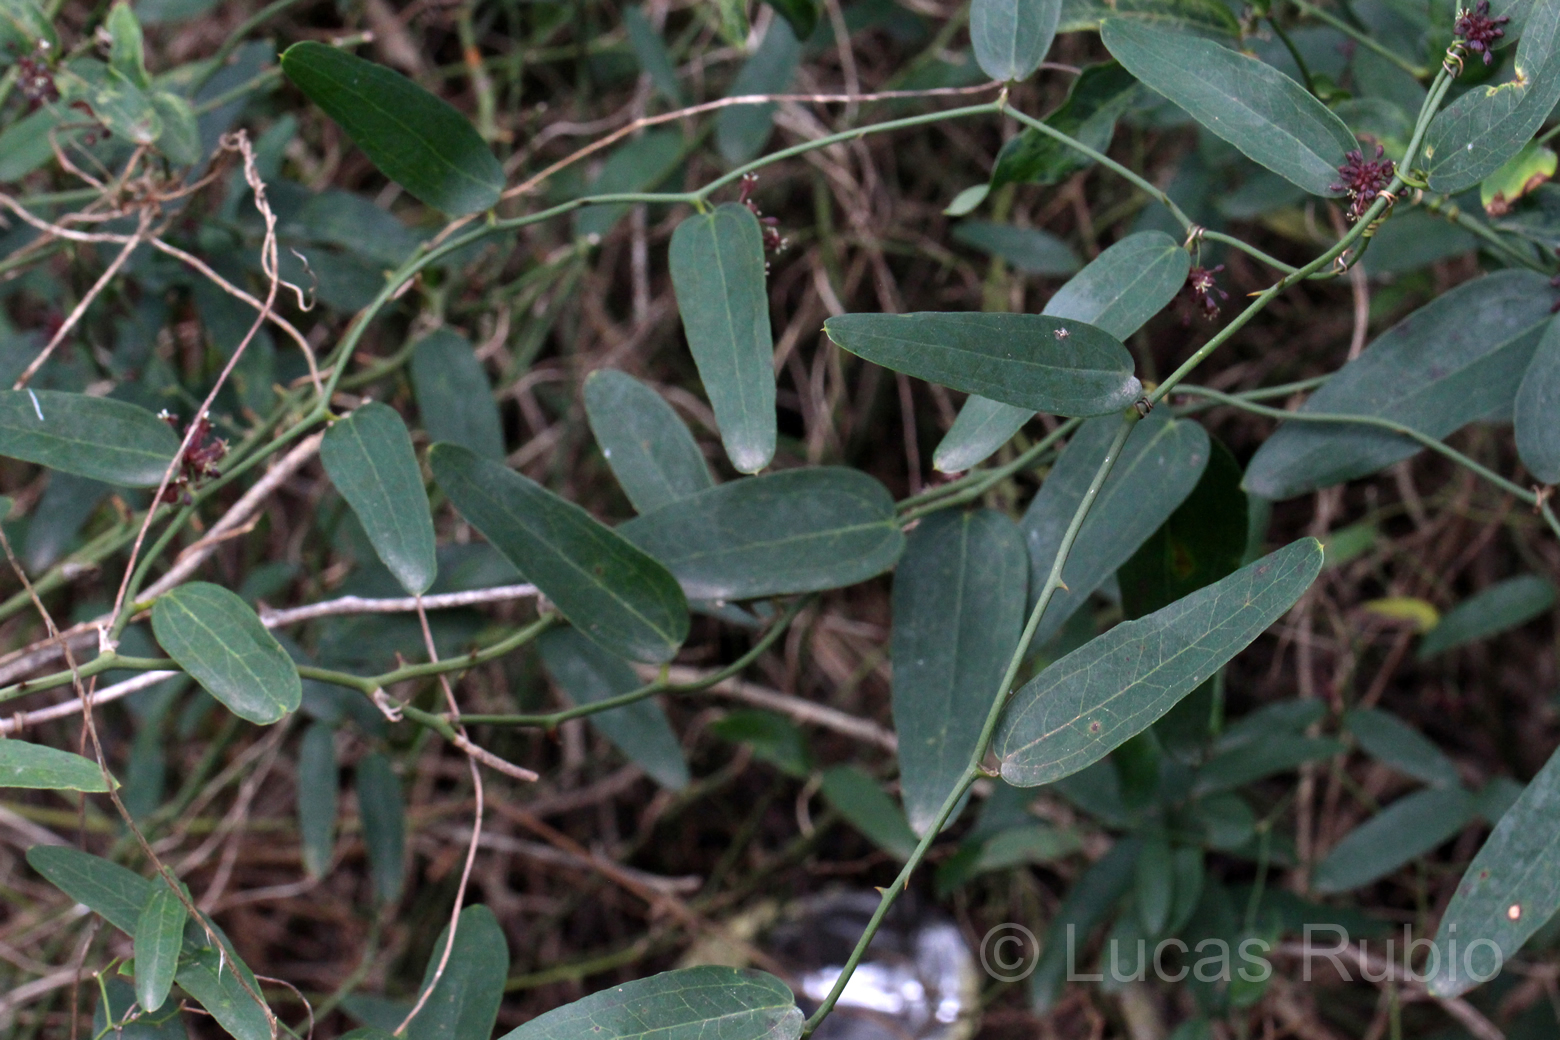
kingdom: Plantae
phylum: Tracheophyta
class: Liliopsida
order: Liliales
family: Smilacaceae
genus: Smilax
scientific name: Smilax campestris
